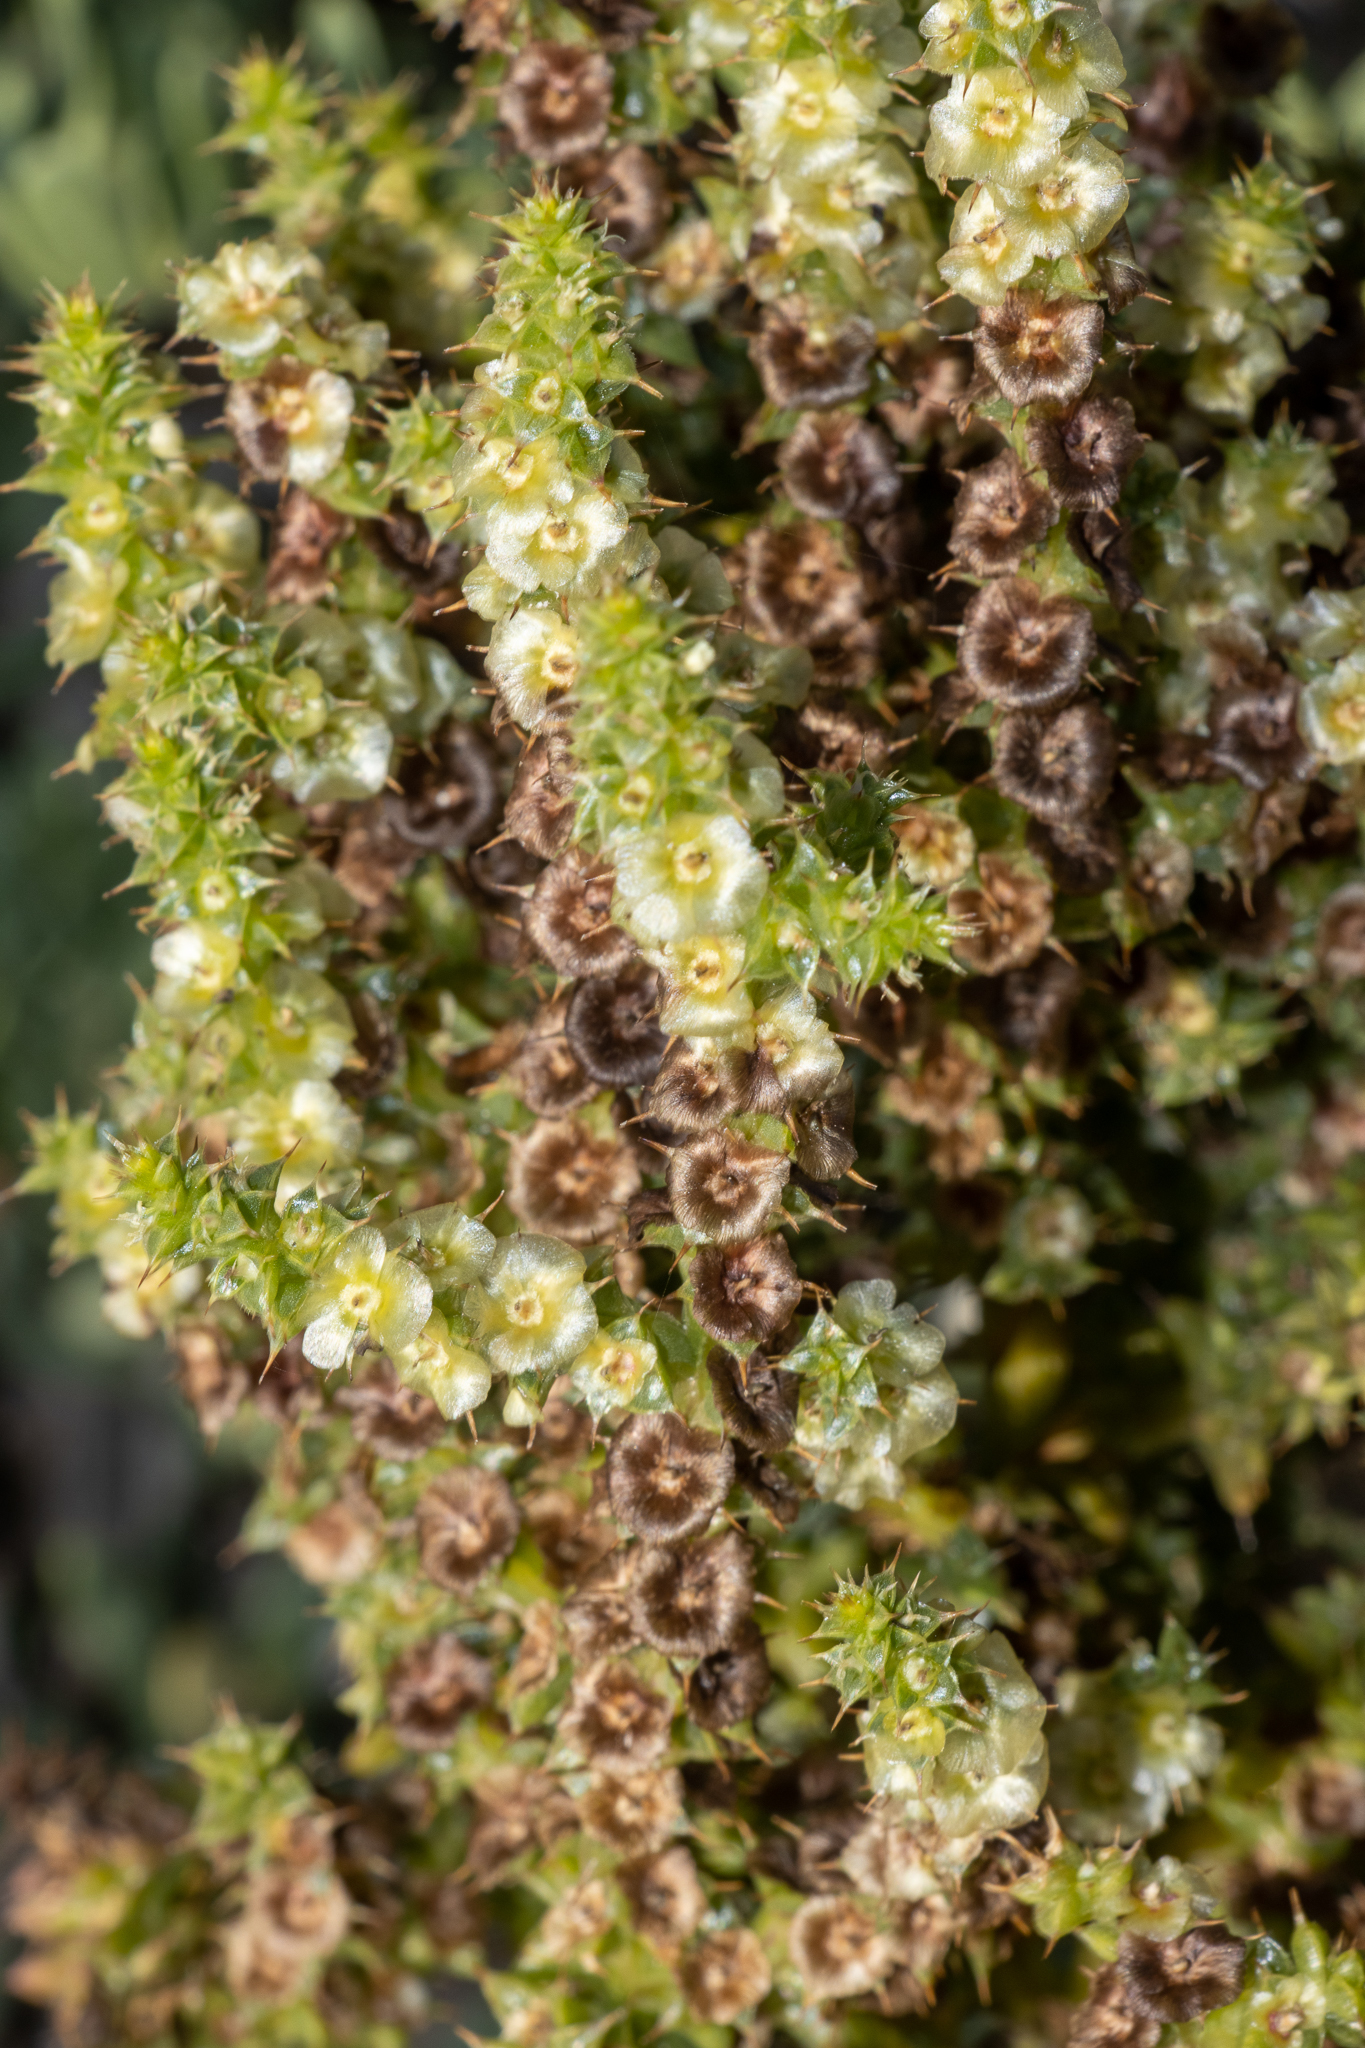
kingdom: Plantae
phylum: Tracheophyta
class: Magnoliopsida
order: Caryophyllales
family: Amaranthaceae
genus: Salsola
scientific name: Salsola australis
